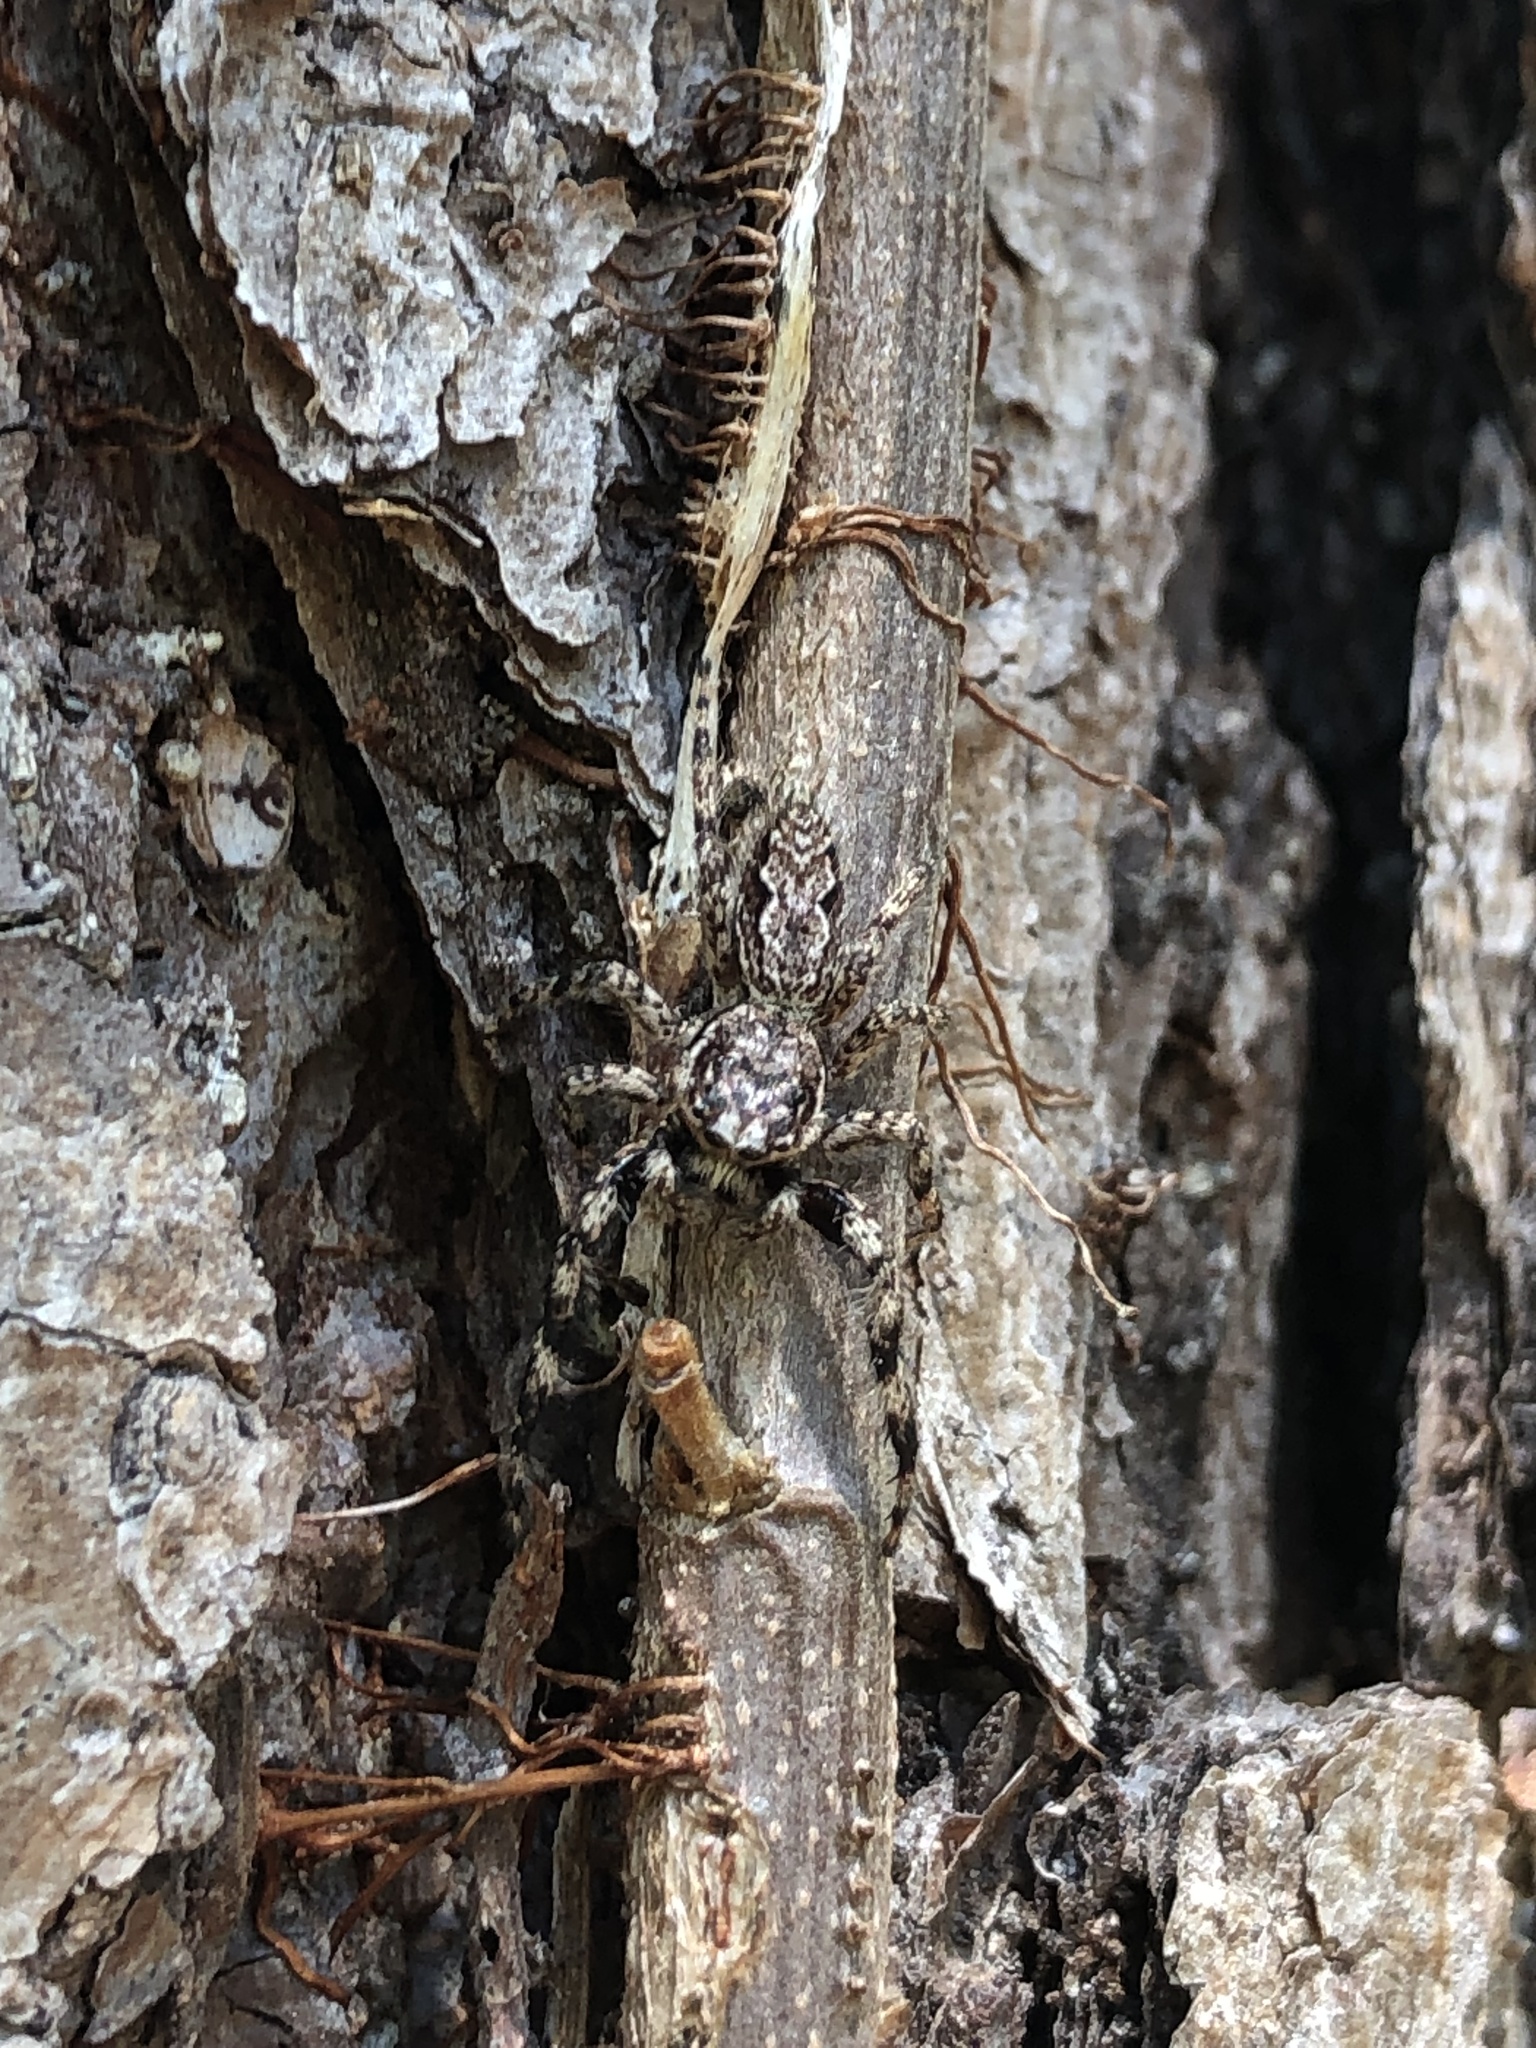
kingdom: Animalia
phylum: Arthropoda
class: Arachnida
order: Araneae
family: Salticidae
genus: Platycryptus
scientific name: Platycryptus undatus
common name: Tan jumping spider
